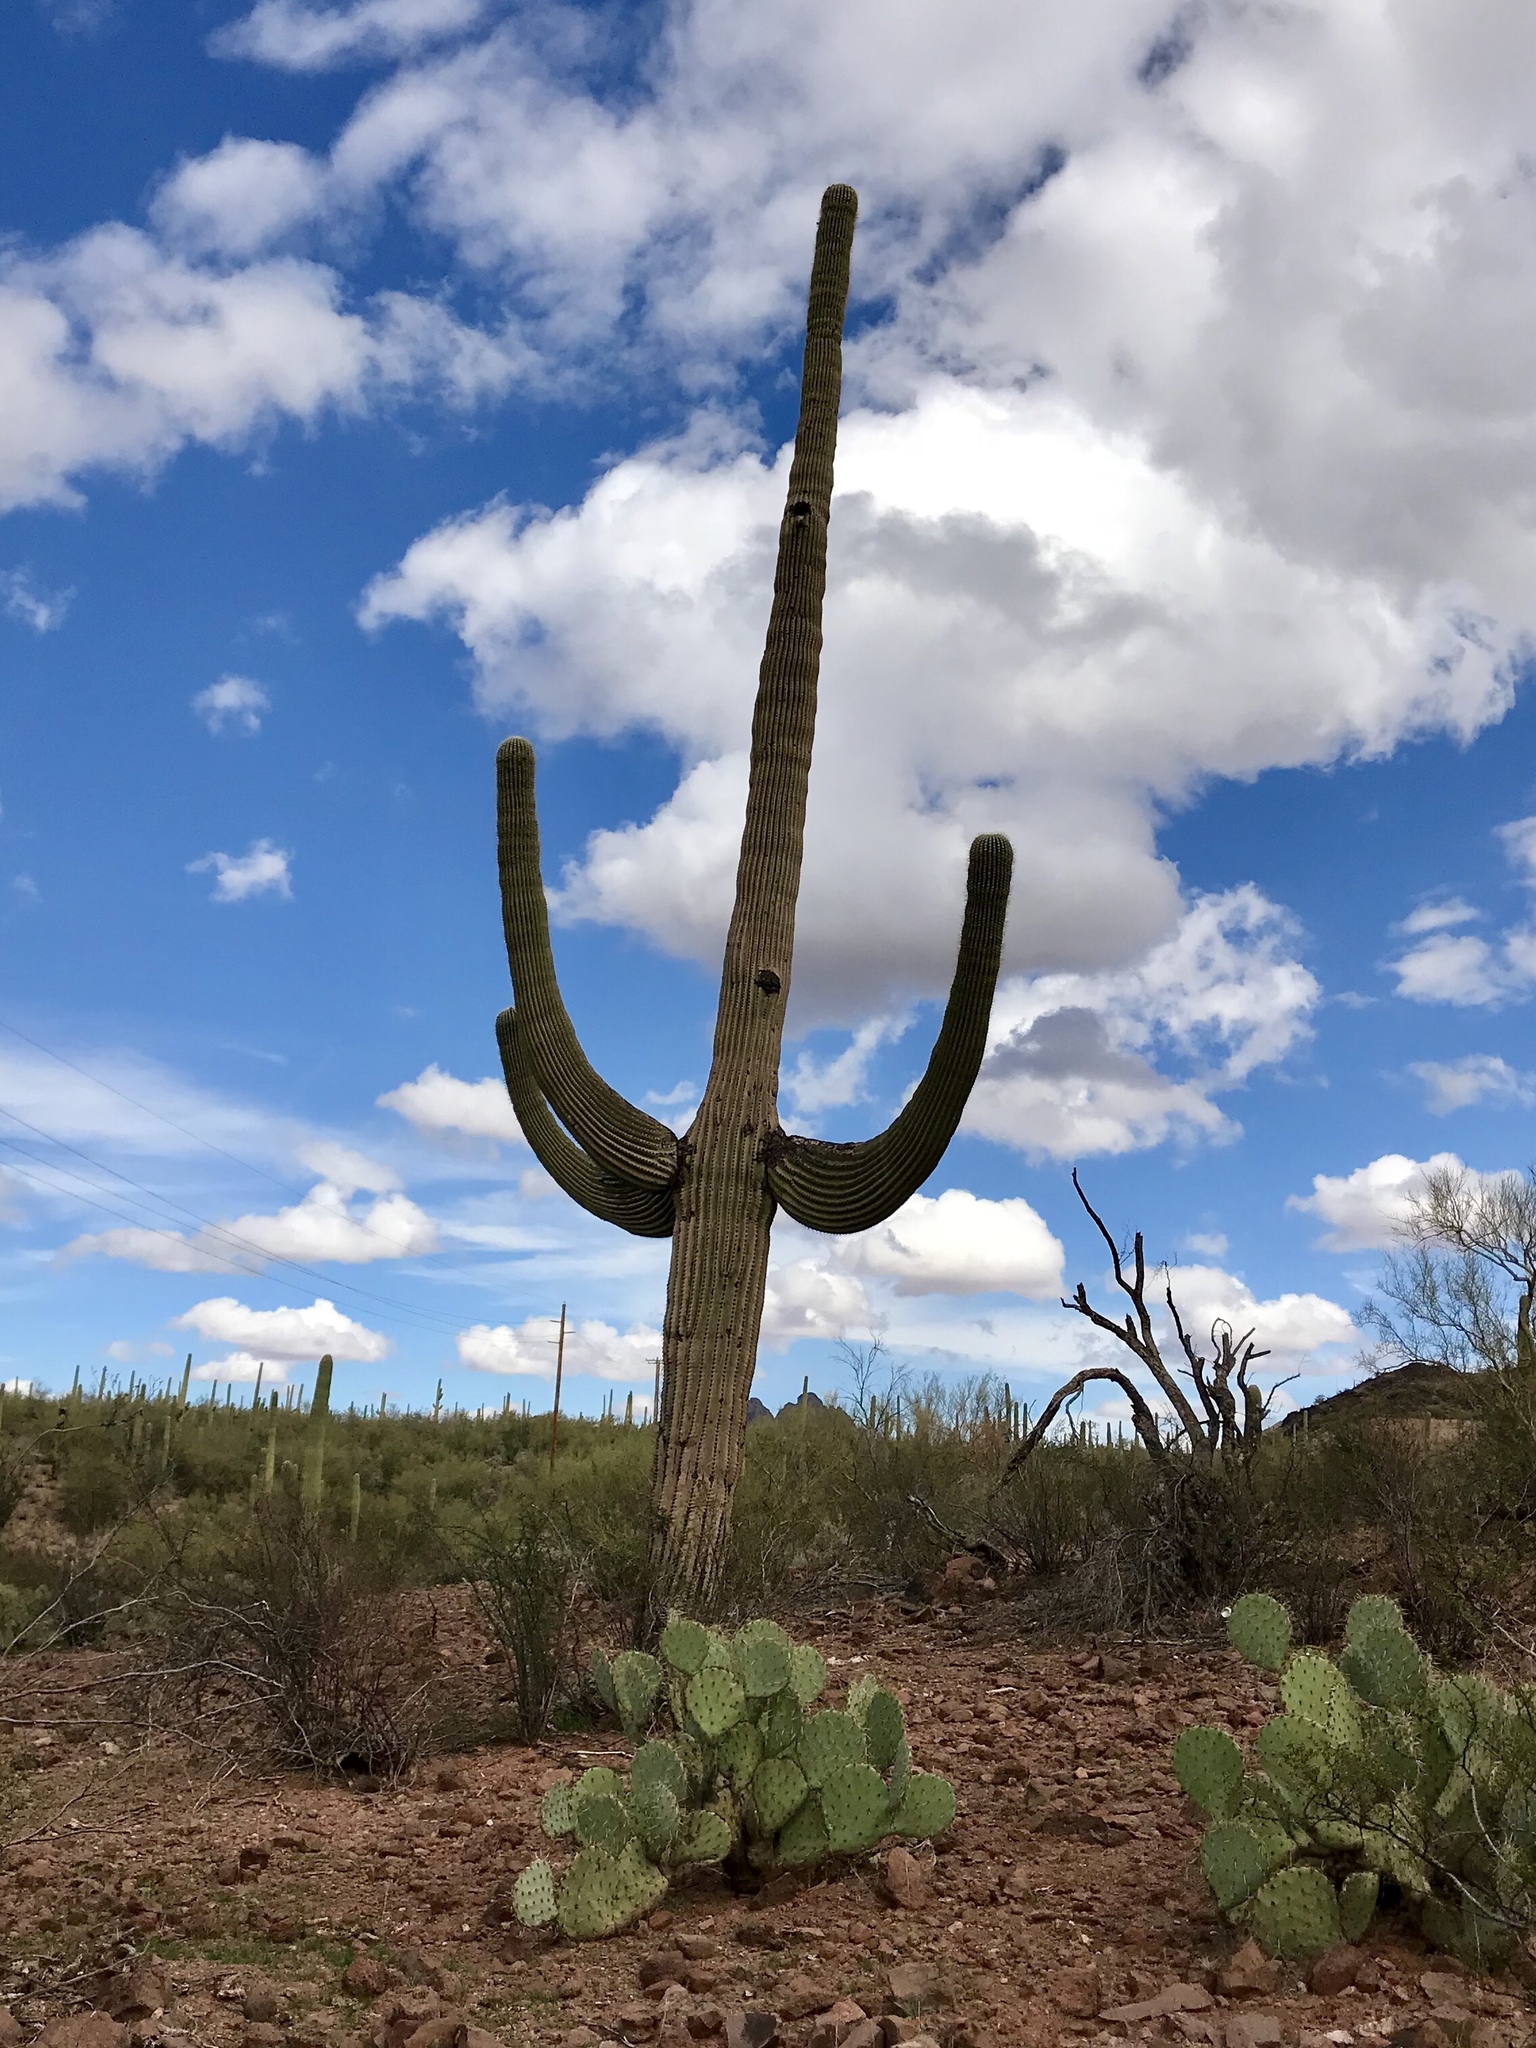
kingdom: Plantae
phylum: Tracheophyta
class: Magnoliopsida
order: Caryophyllales
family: Cactaceae
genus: Carnegiea
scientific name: Carnegiea gigantea
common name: Saguaro
